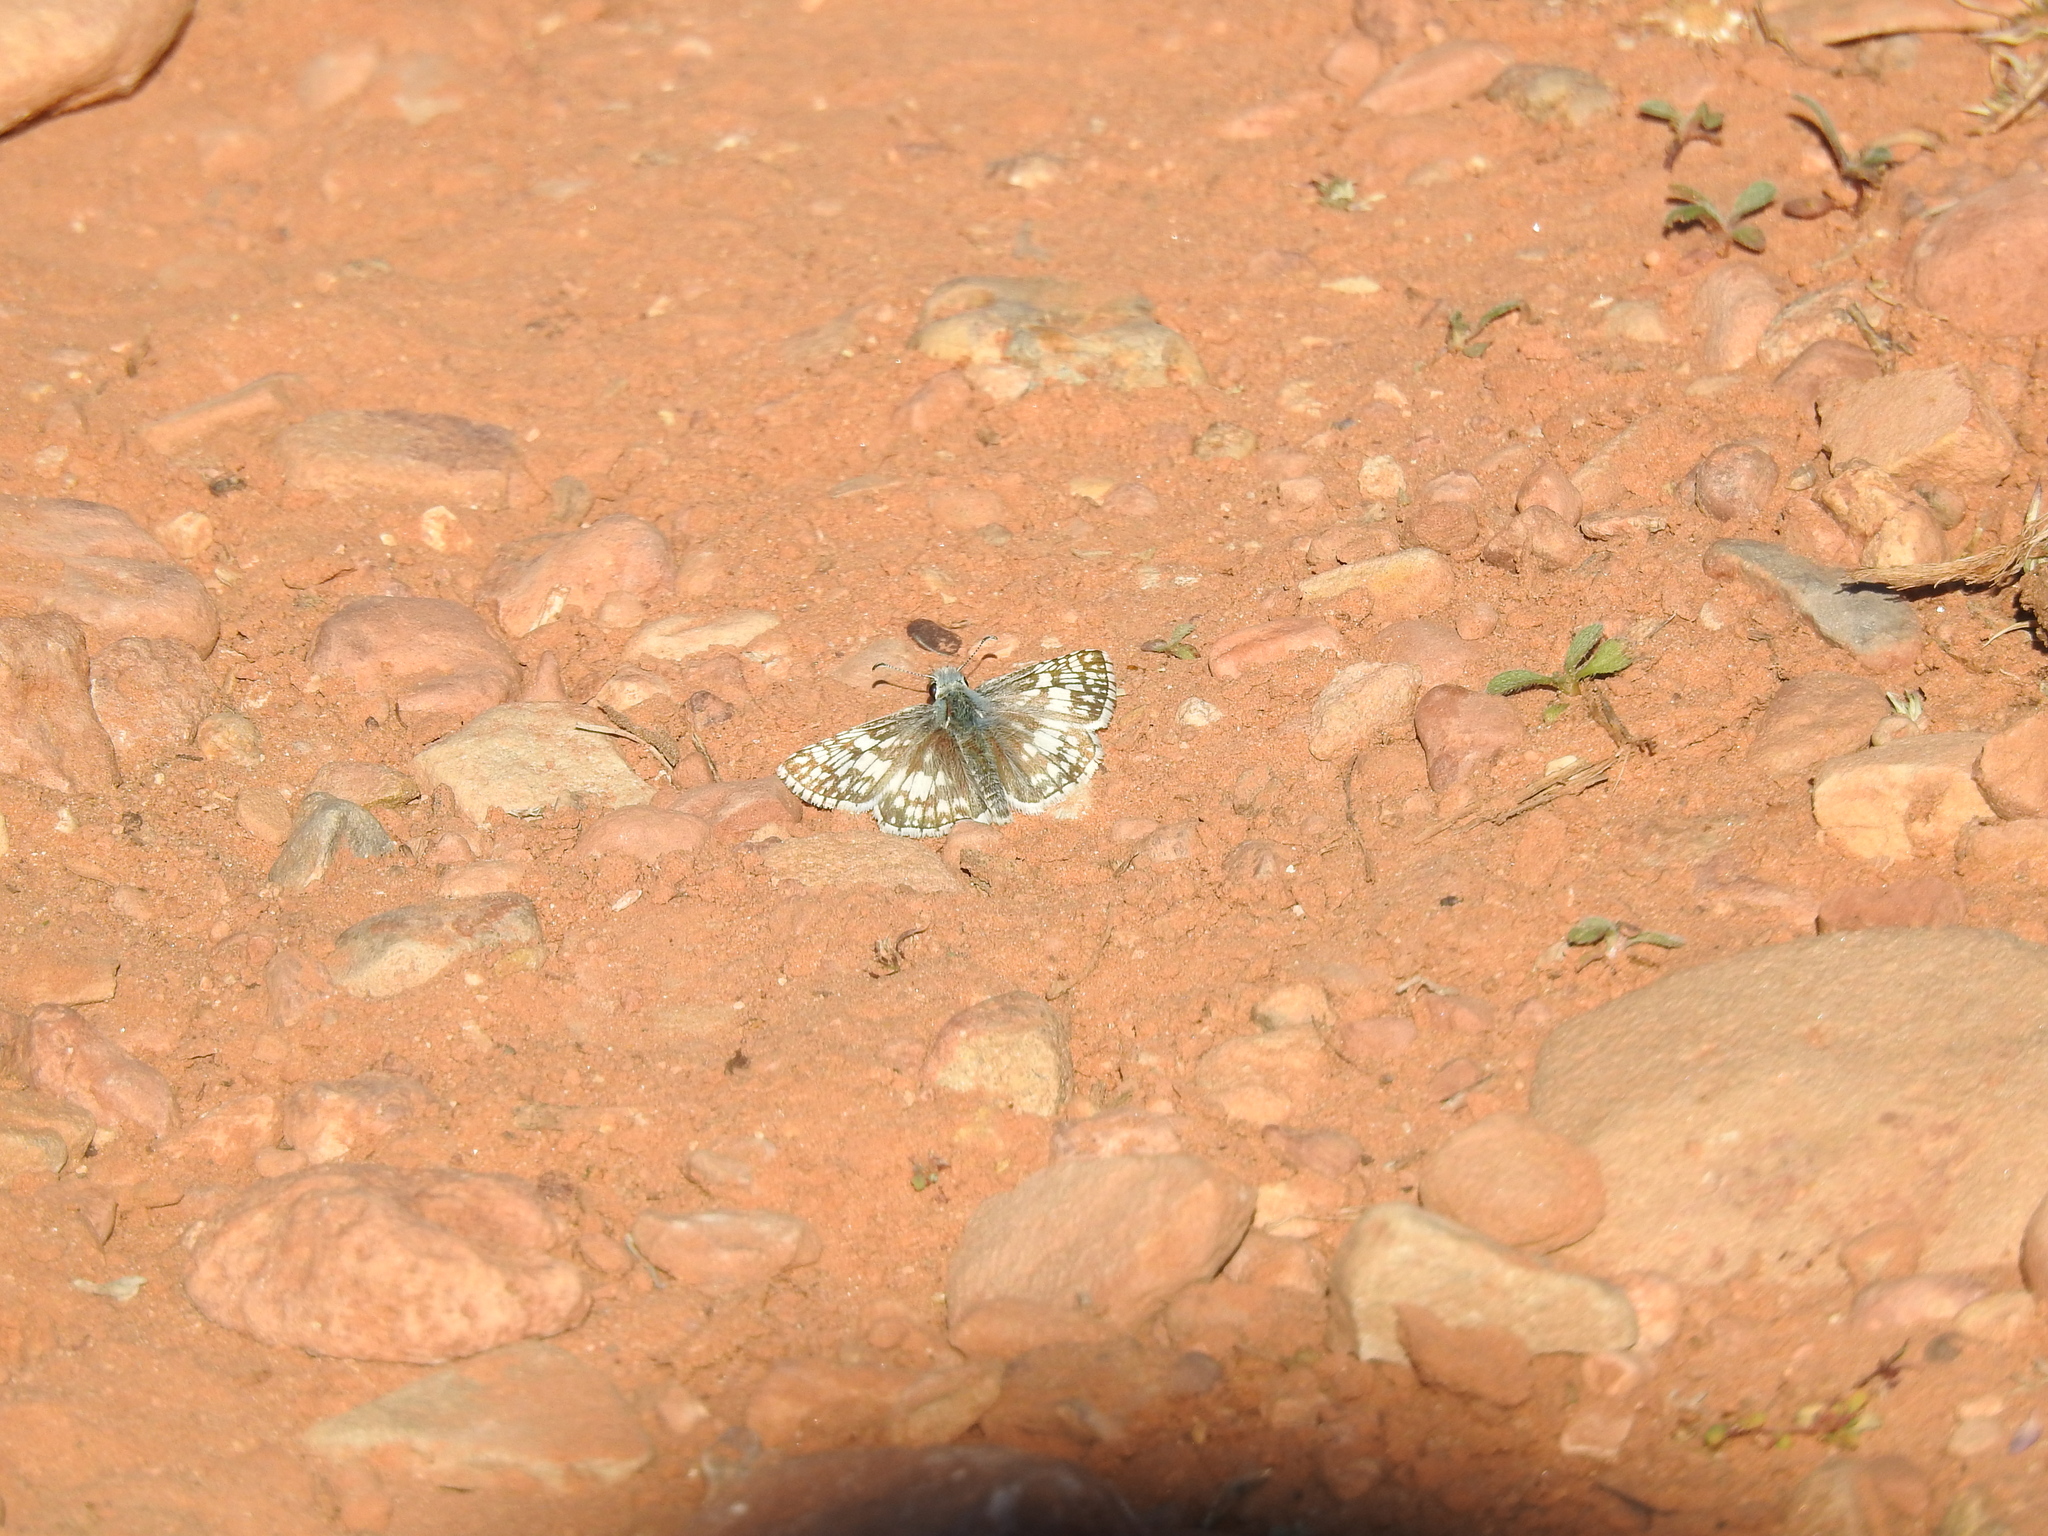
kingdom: Animalia
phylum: Arthropoda
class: Insecta
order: Lepidoptera
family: Hesperiidae
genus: Burnsius
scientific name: Burnsius communis
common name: Common checkered-skipper
